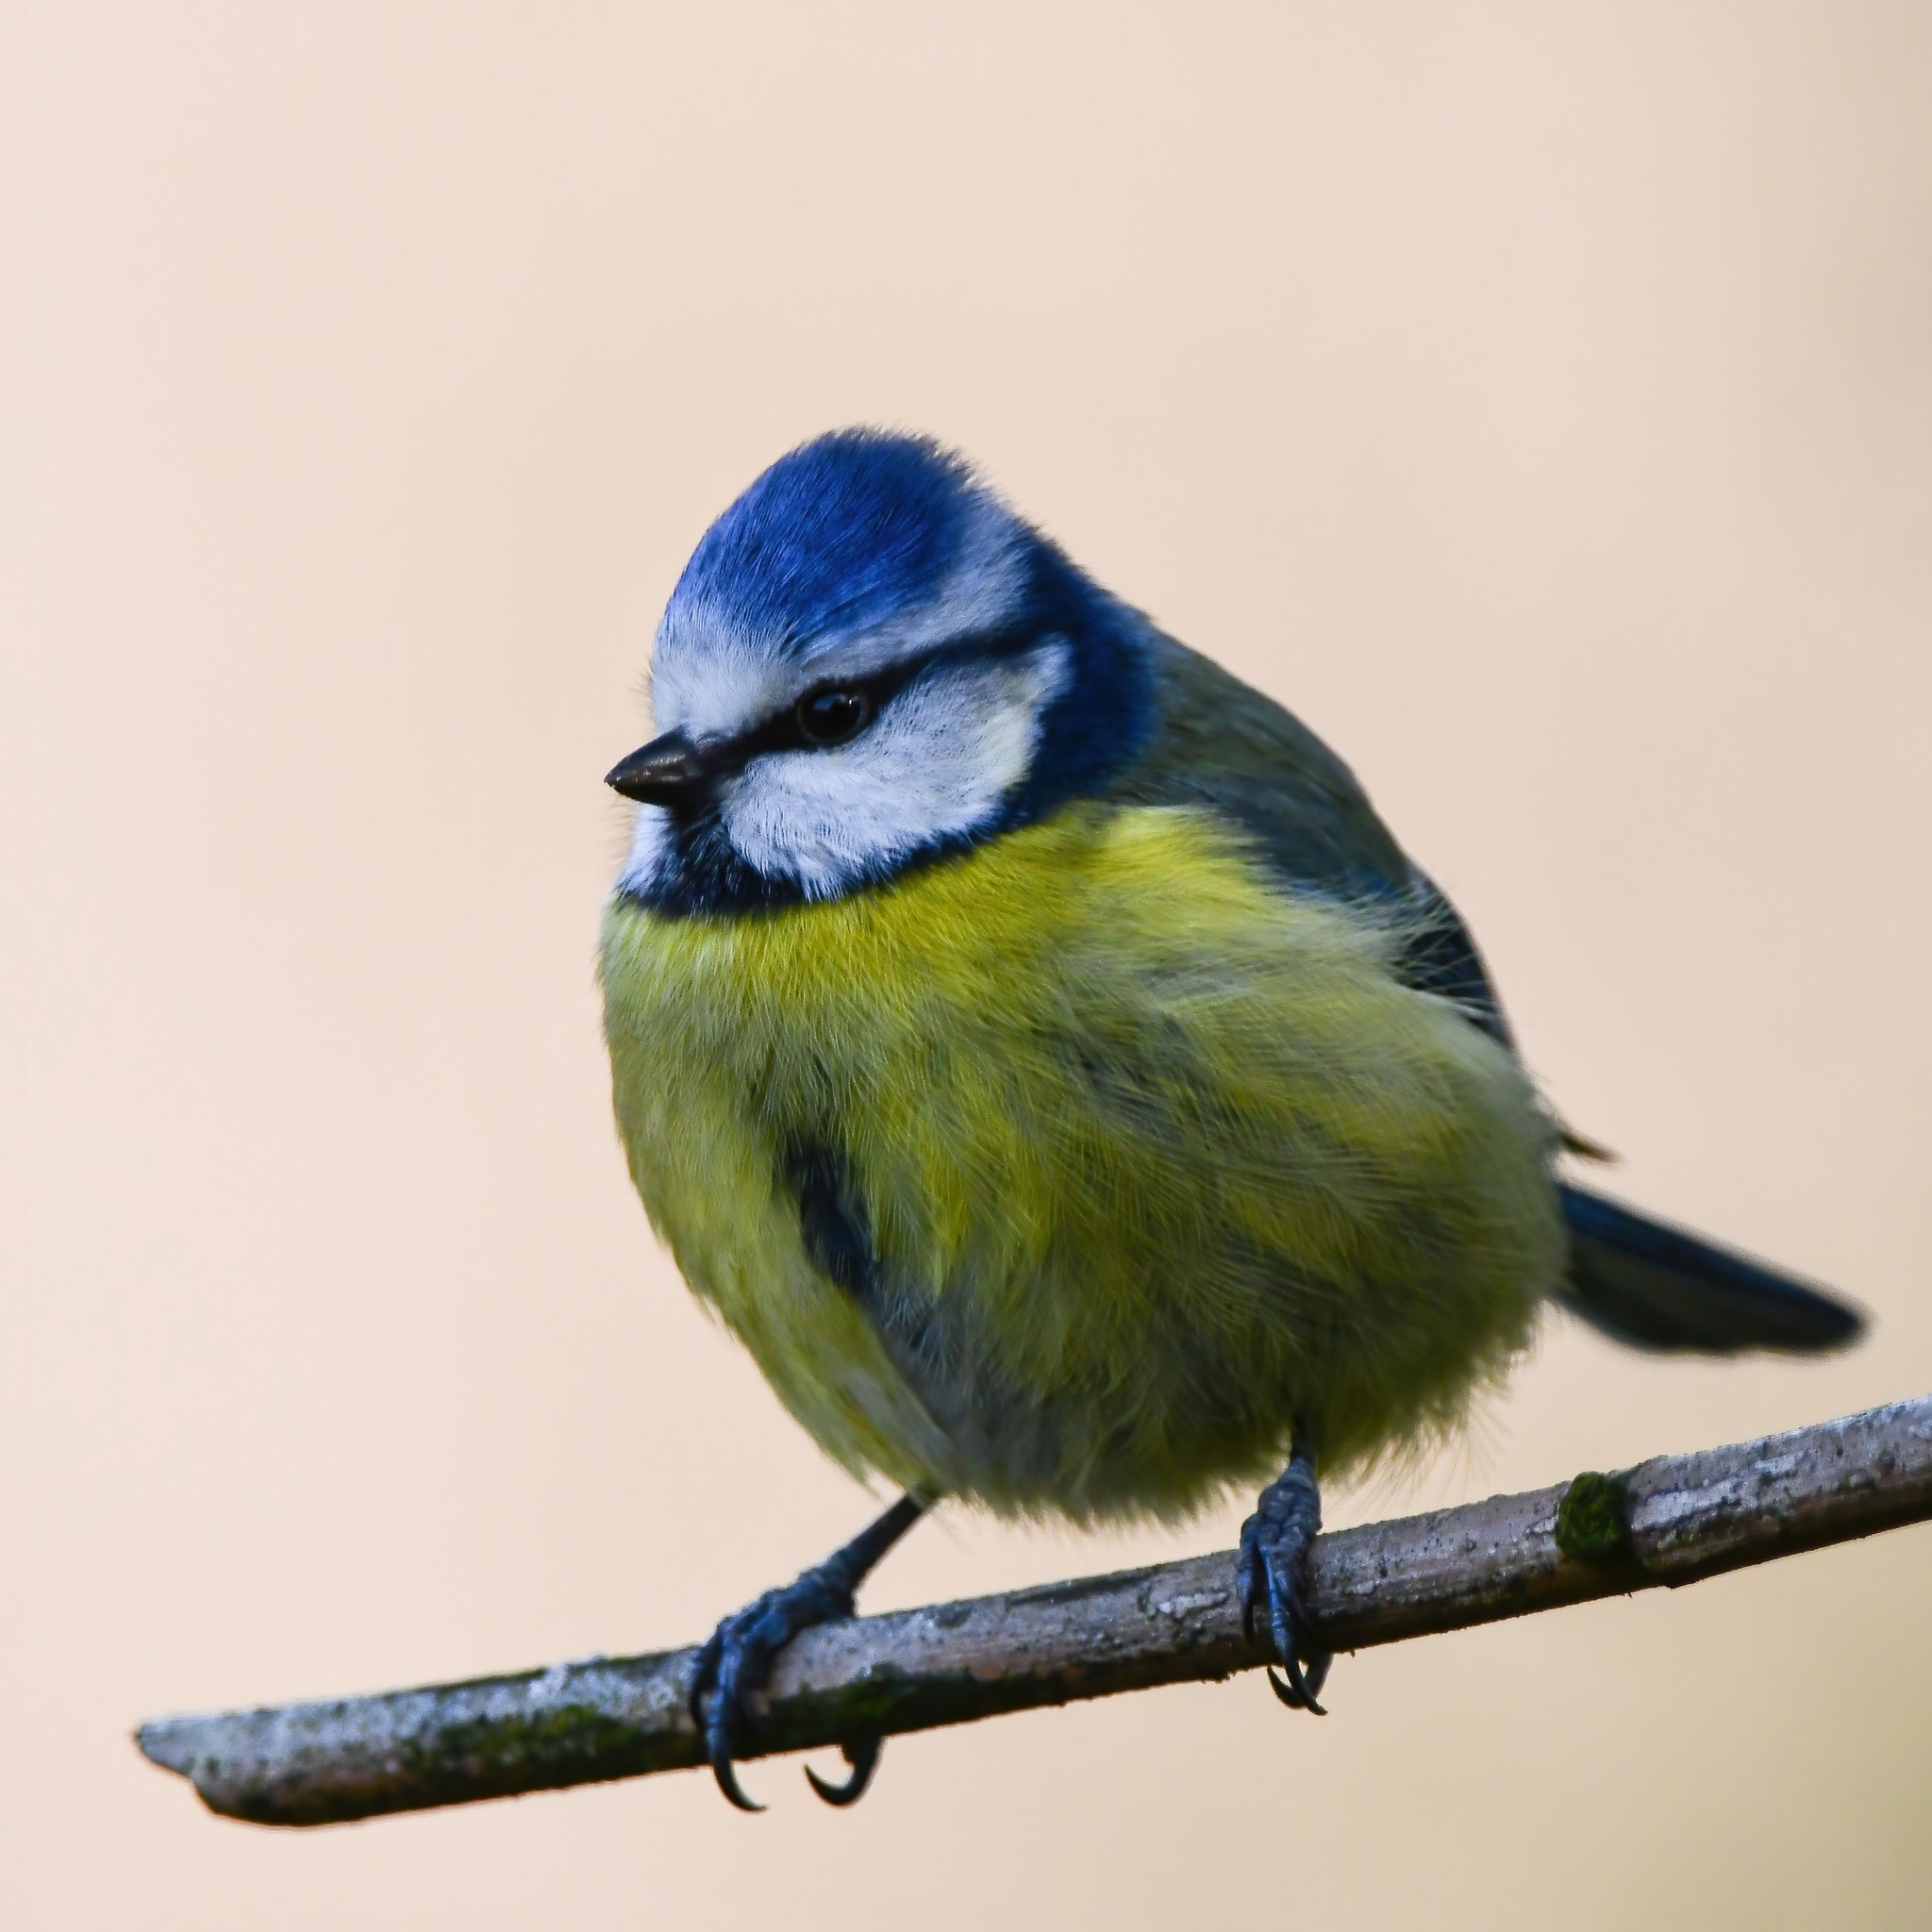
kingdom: Animalia
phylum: Chordata
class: Aves
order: Passeriformes
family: Paridae
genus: Cyanistes
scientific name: Cyanistes caeruleus
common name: Eurasian blue tit
